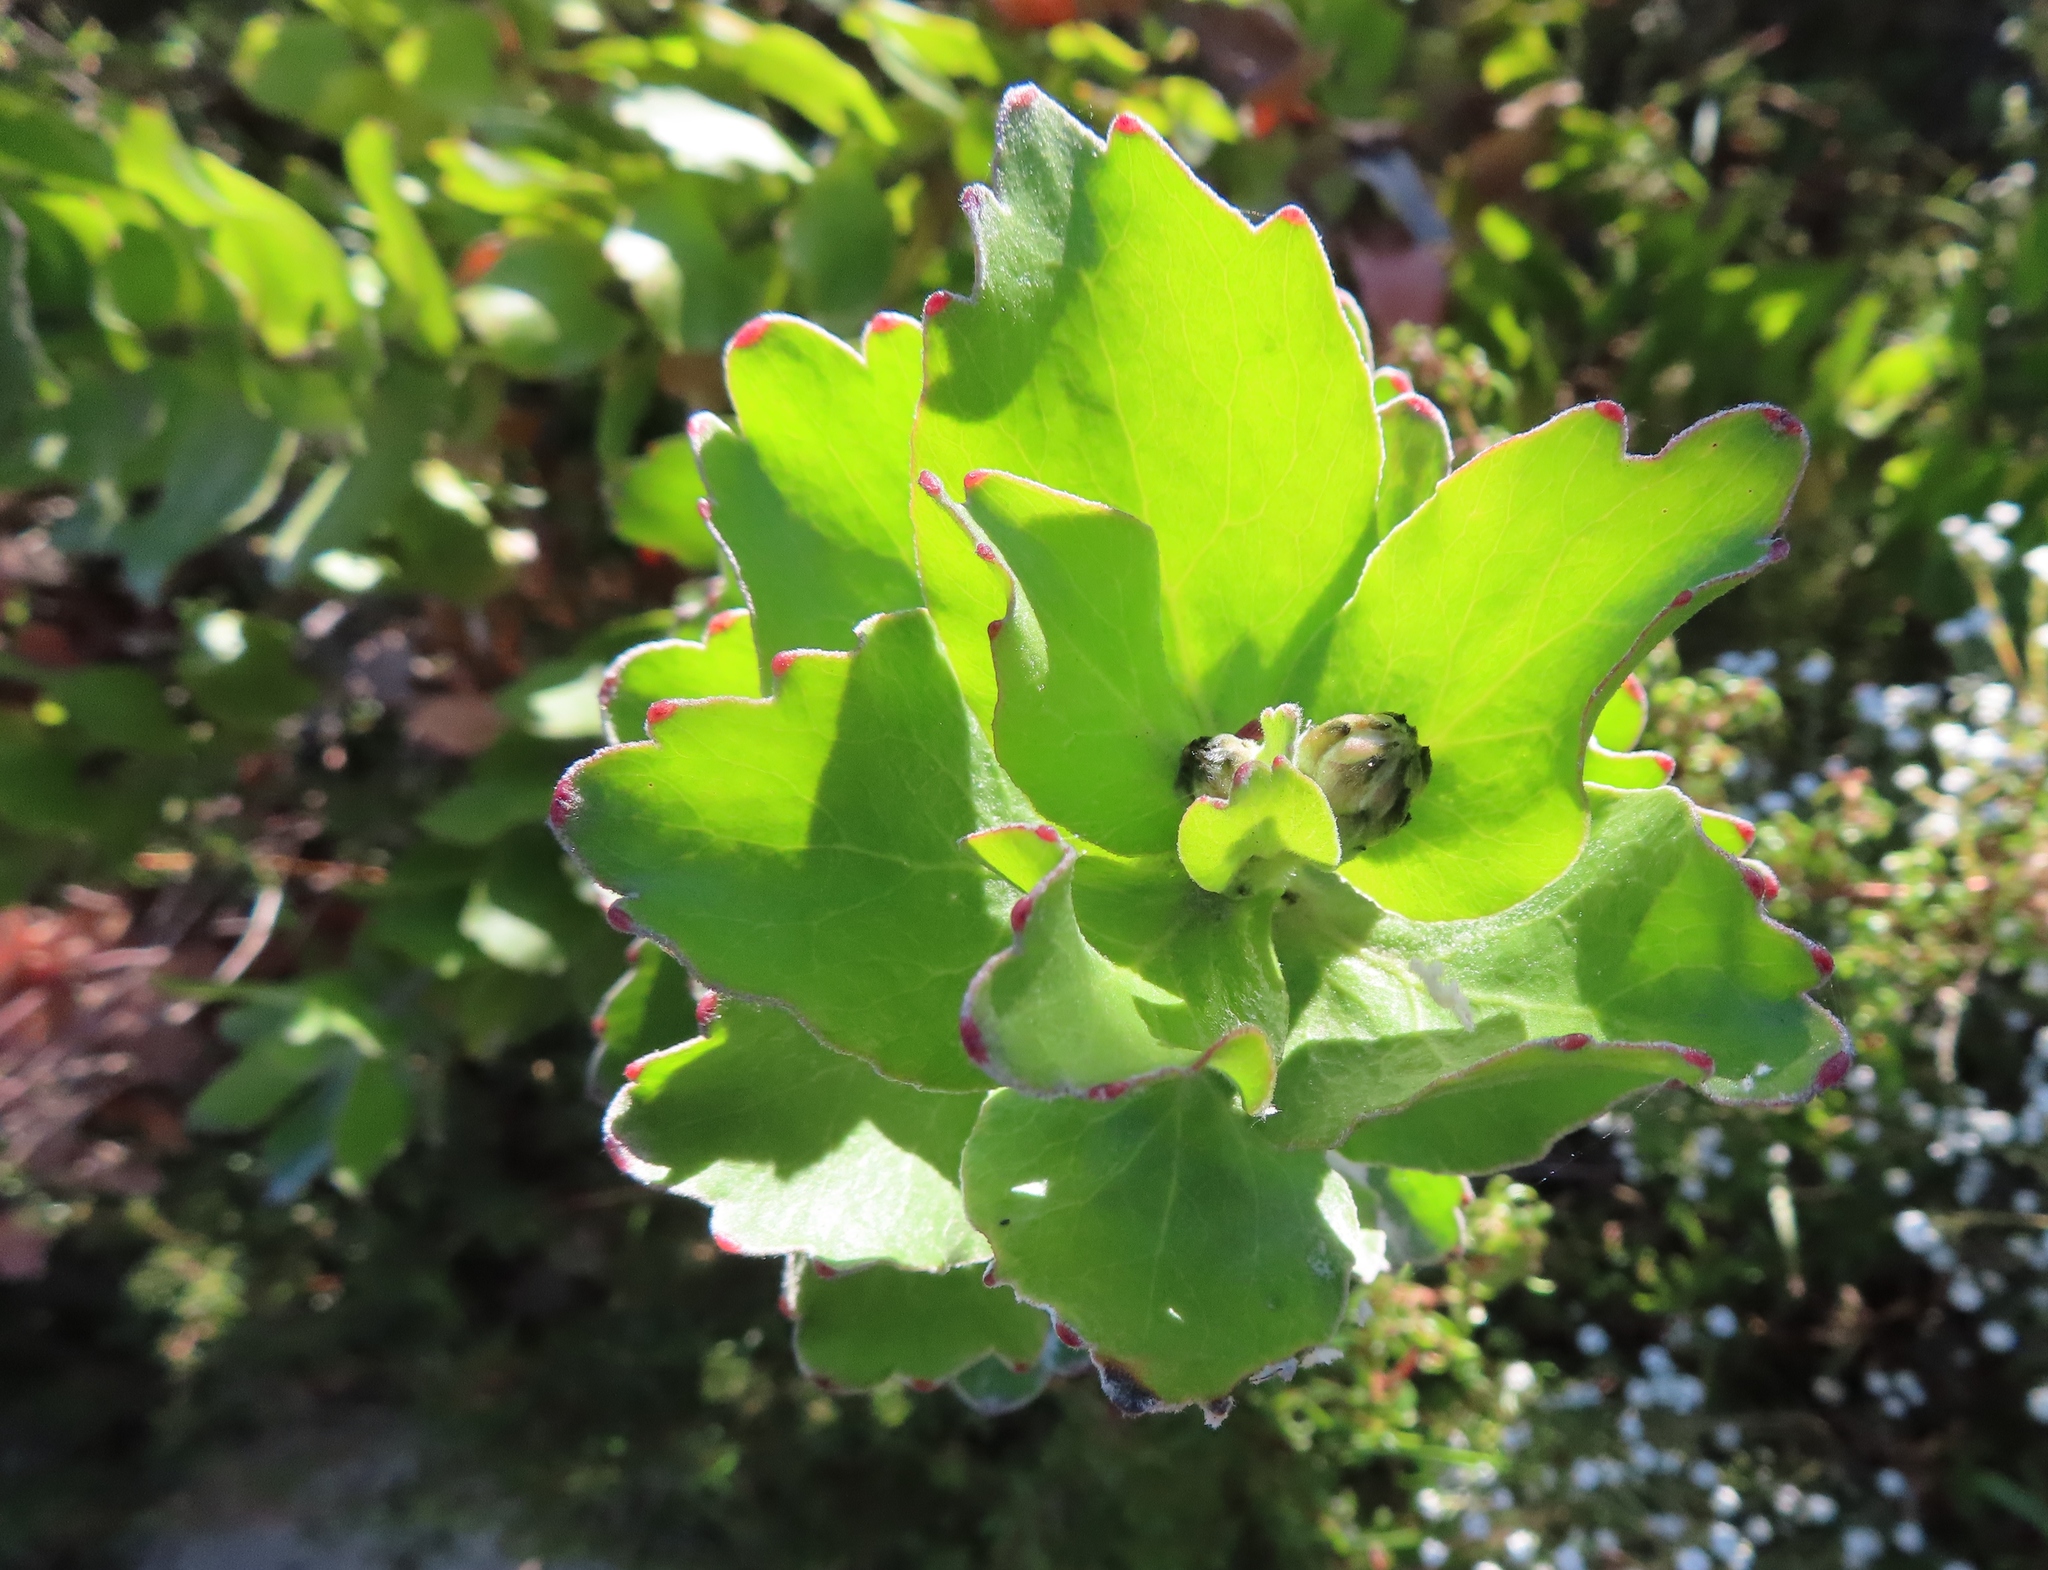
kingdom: Plantae
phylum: Tracheophyta
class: Magnoliopsida
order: Proteales
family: Proteaceae
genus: Leucospermum
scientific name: Leucospermum patersonii
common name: False tree pincushion
